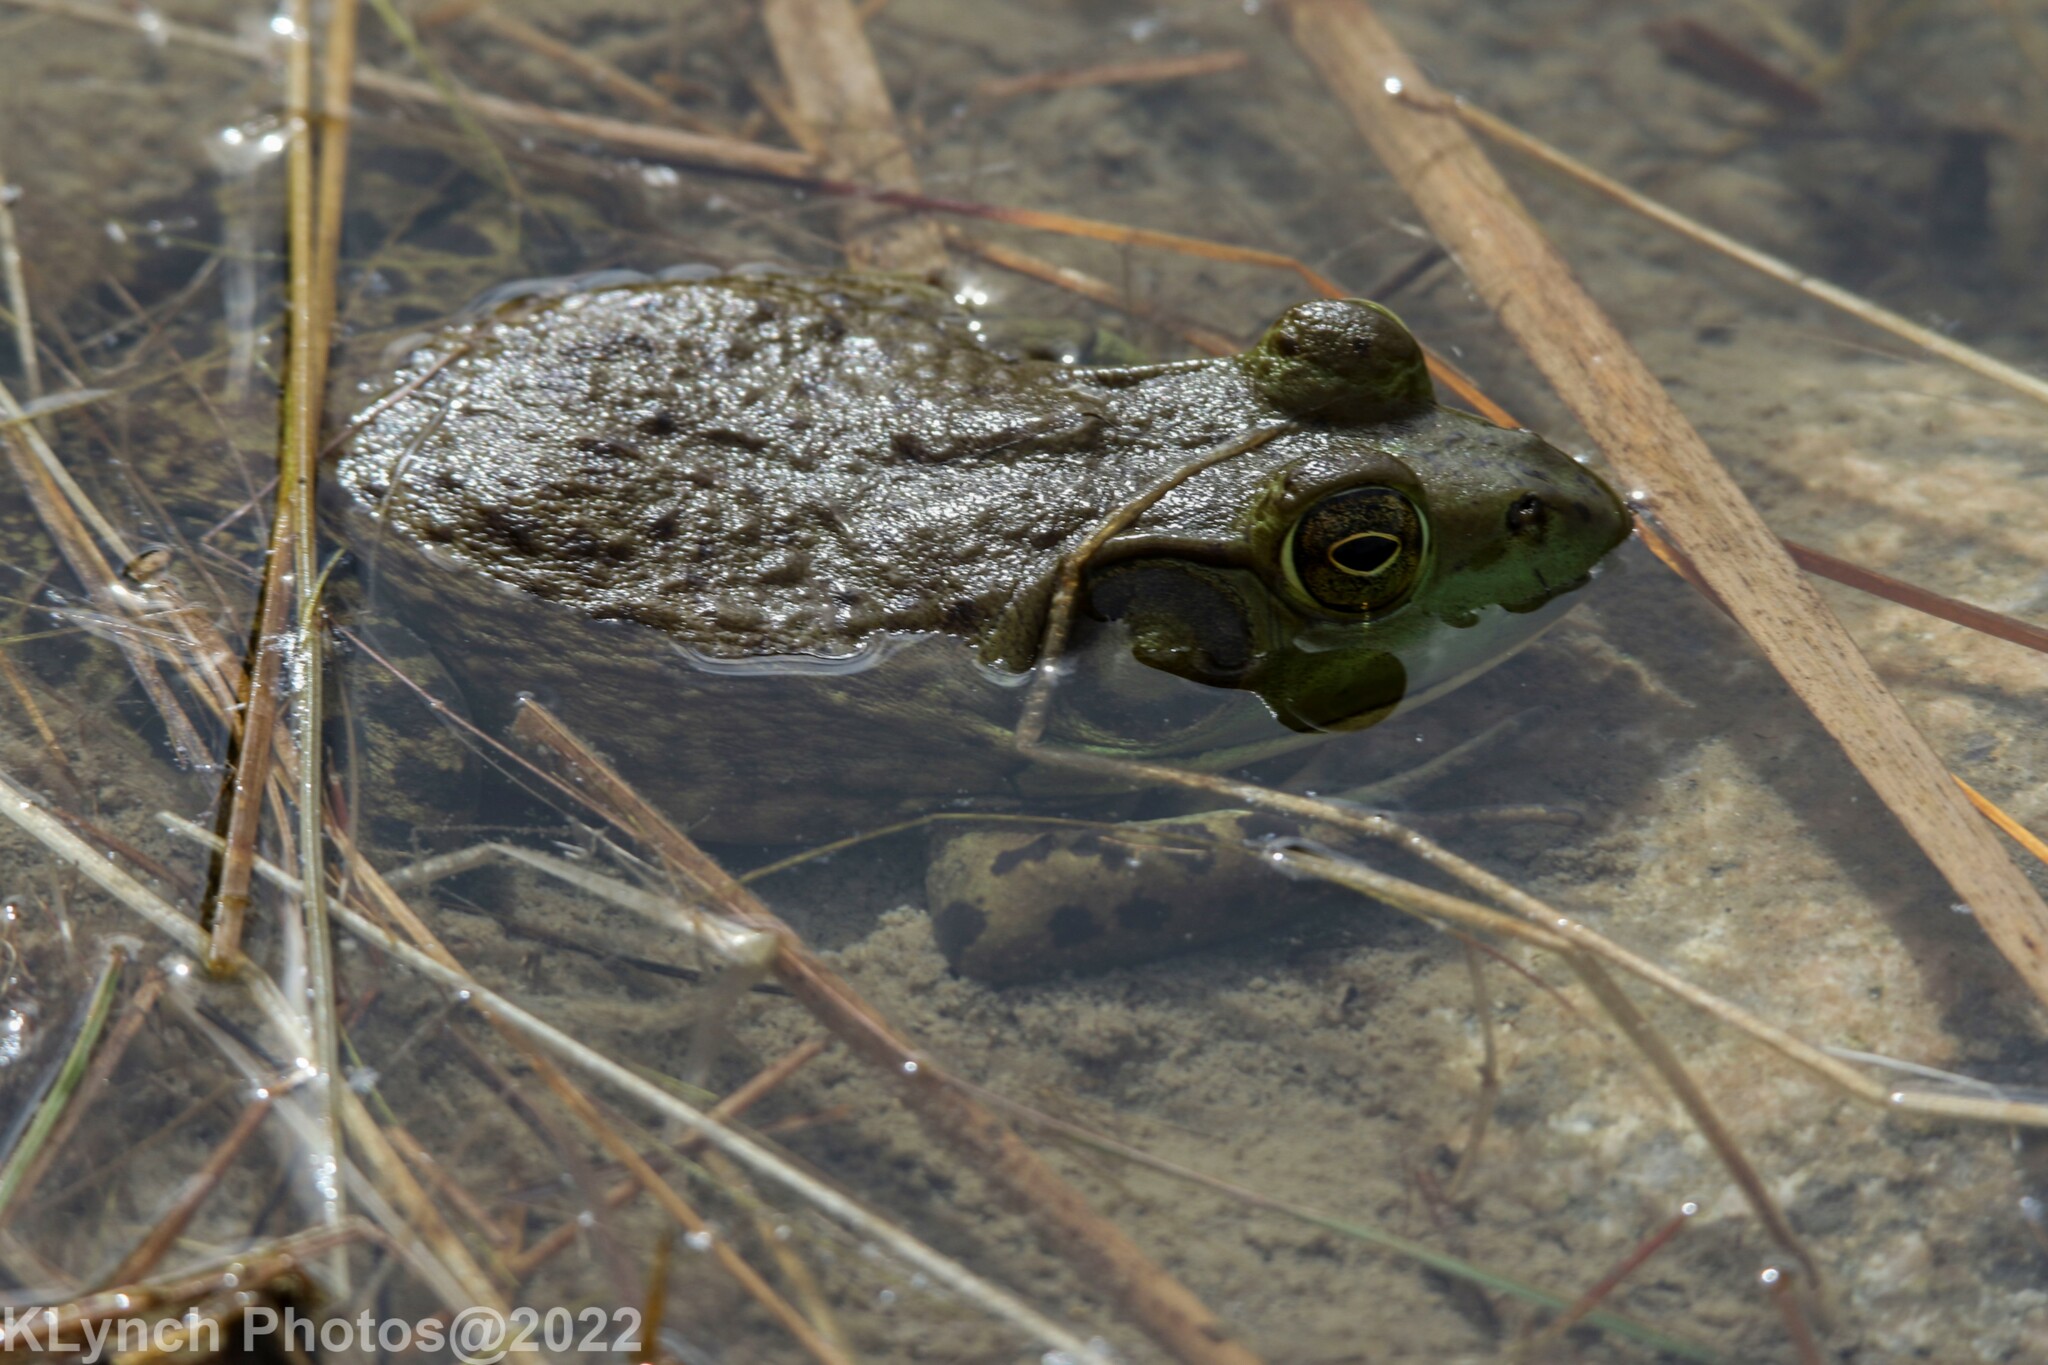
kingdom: Animalia
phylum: Chordata
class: Amphibia
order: Anura
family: Ranidae
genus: Lithobates
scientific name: Lithobates catesbeianus
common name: American bullfrog
